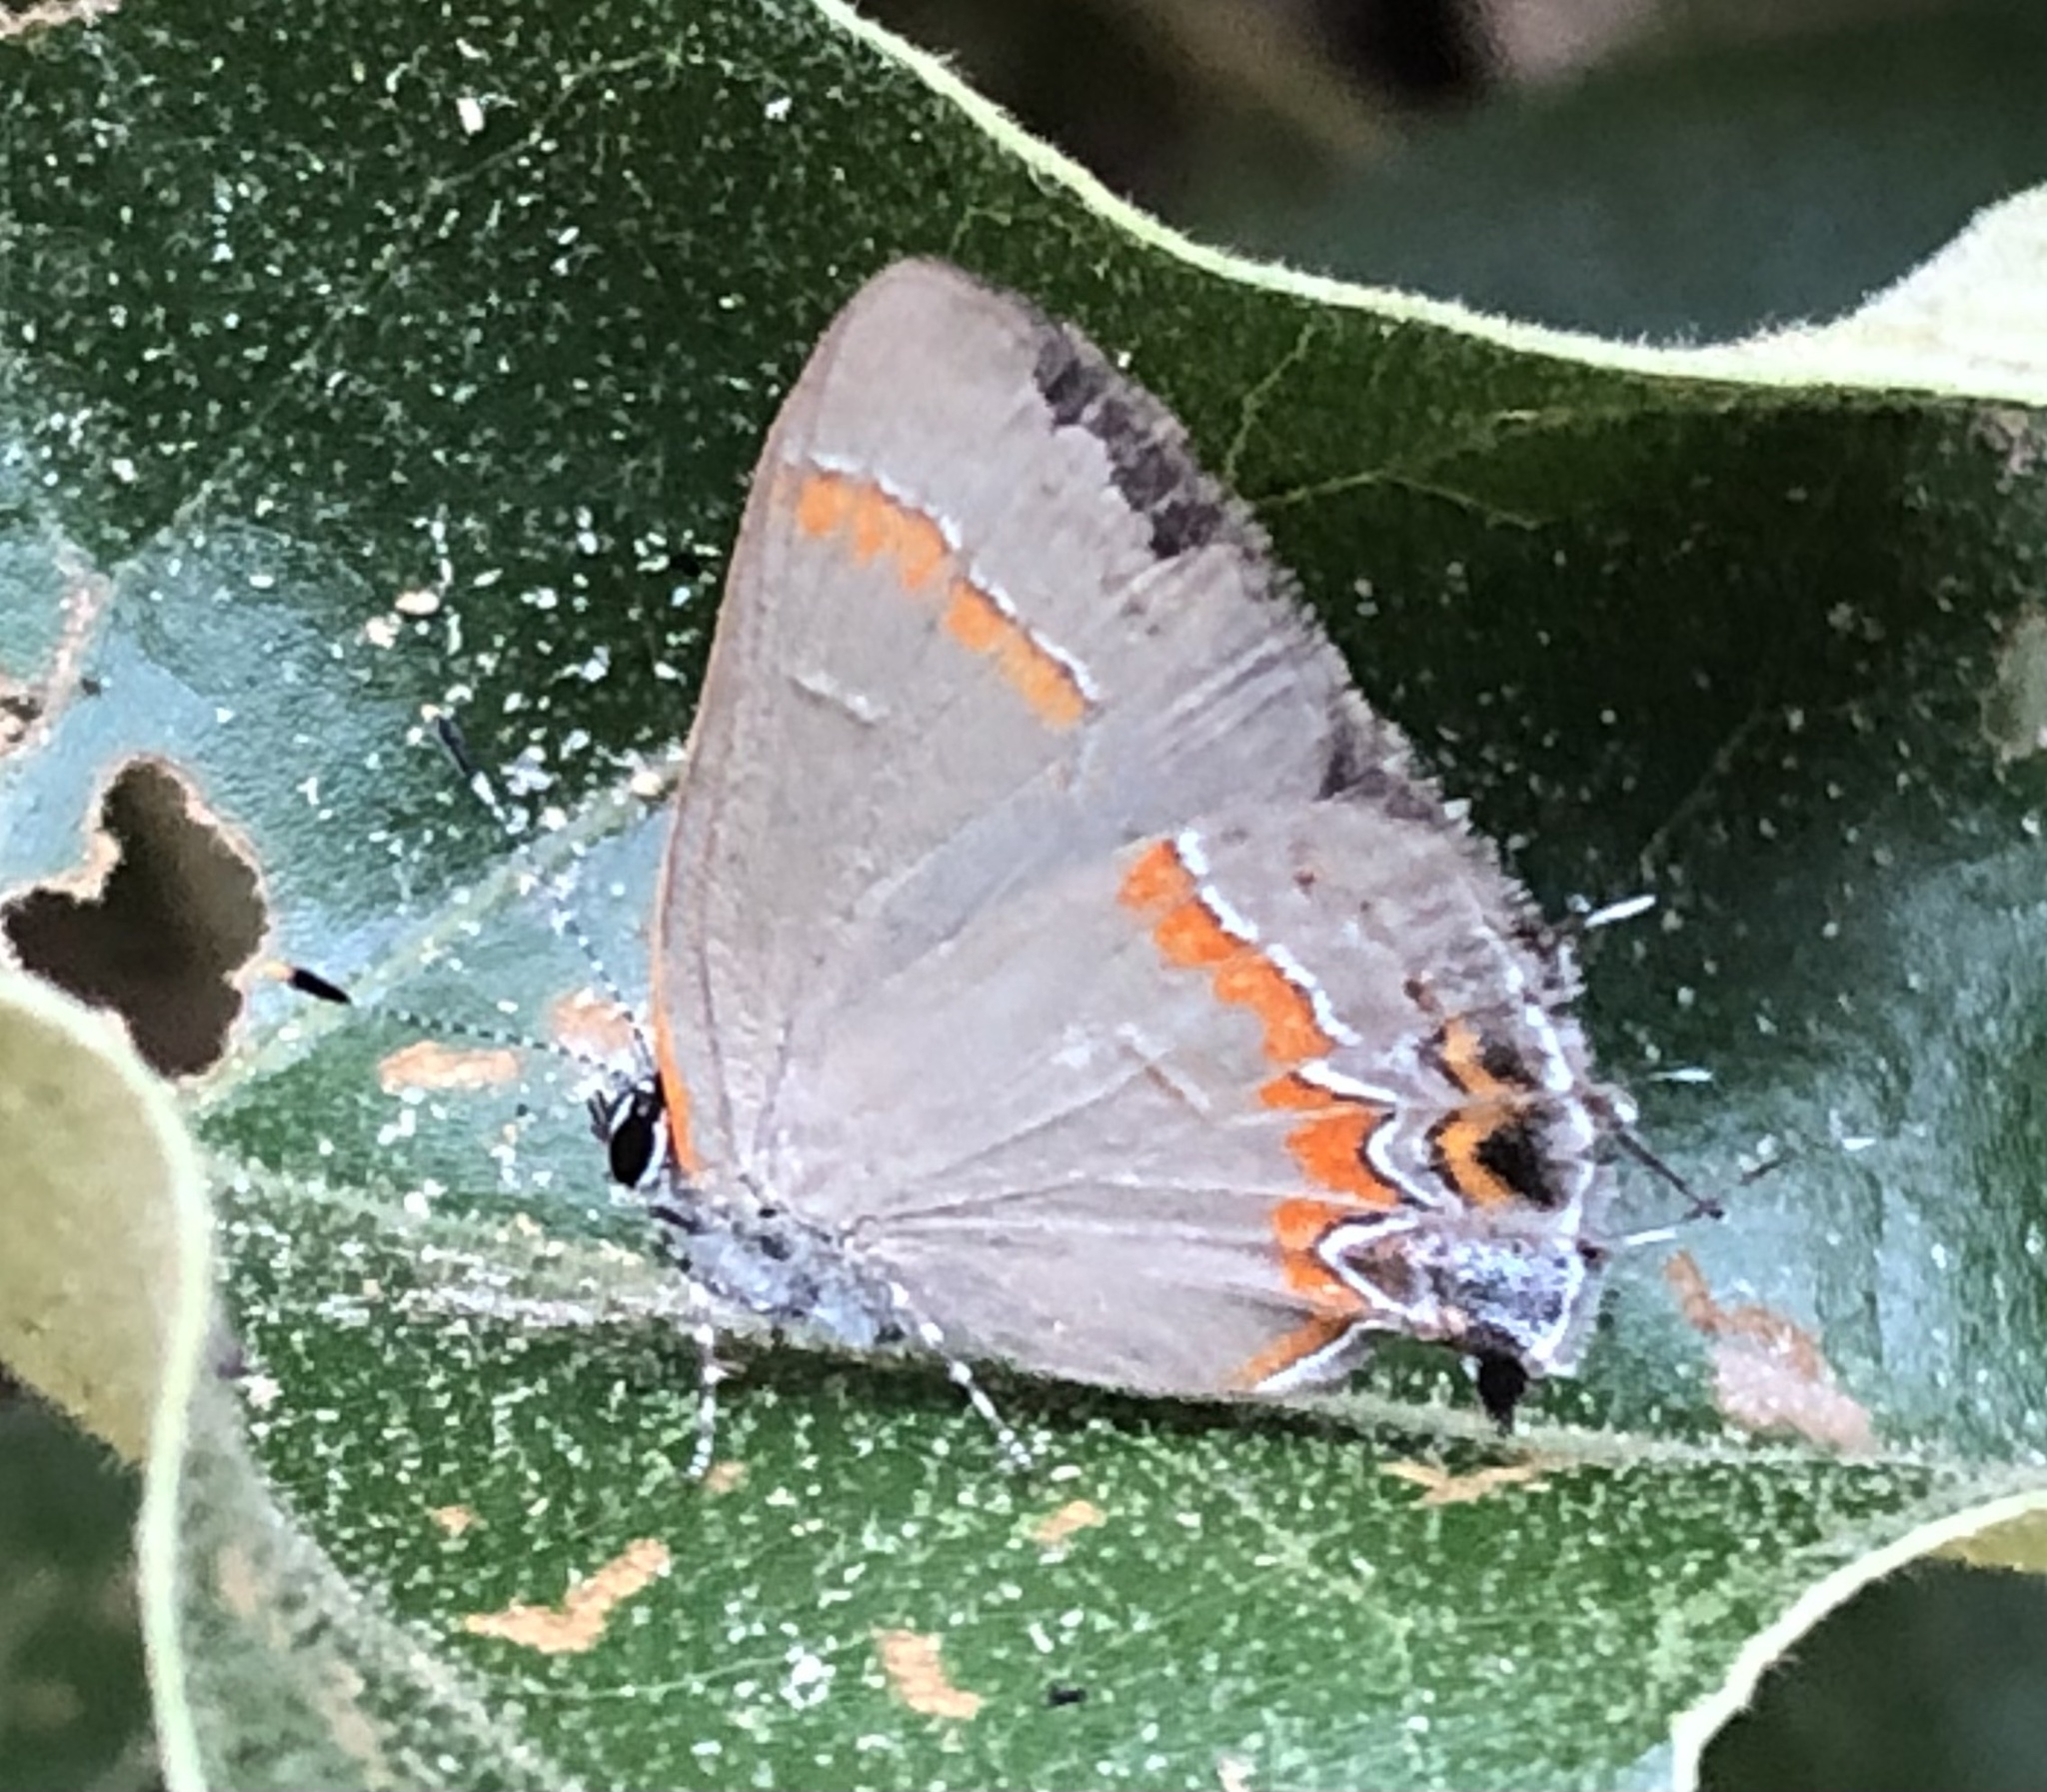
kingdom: Animalia
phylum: Arthropoda
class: Insecta
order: Lepidoptera
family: Lycaenidae
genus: Calycopis
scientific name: Calycopis cecrops
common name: Red-banded hairstreak
